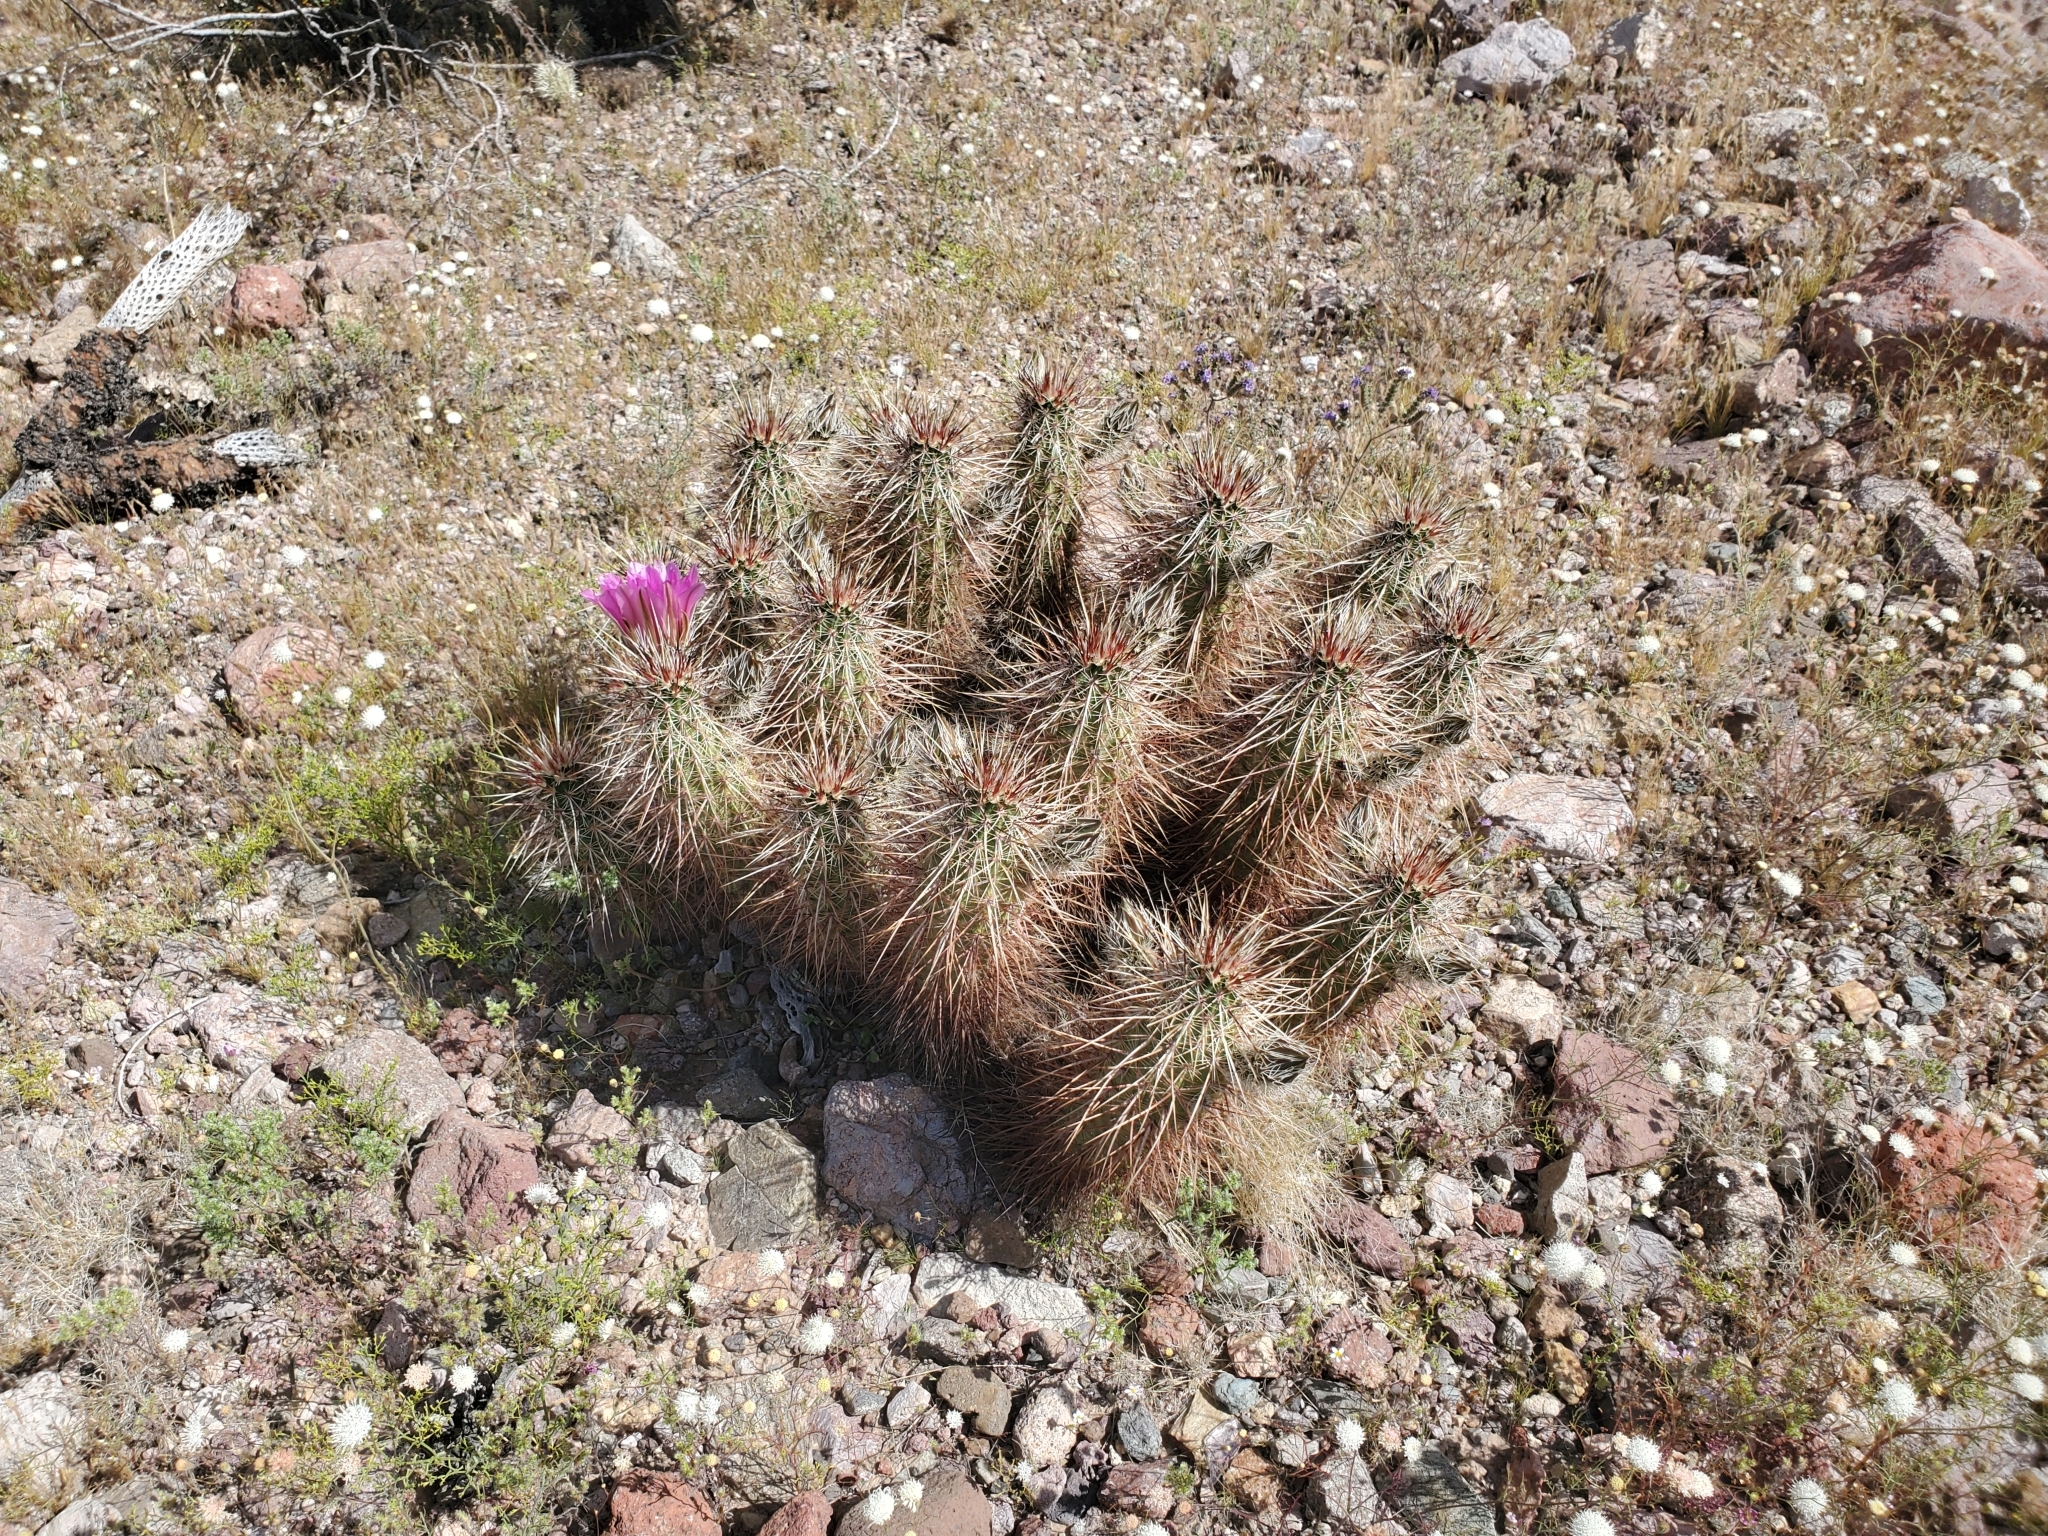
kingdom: Plantae
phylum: Tracheophyta
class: Magnoliopsida
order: Caryophyllales
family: Cactaceae
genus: Echinocereus
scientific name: Echinocereus engelmannii
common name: Engelmann's hedgehog cactus
